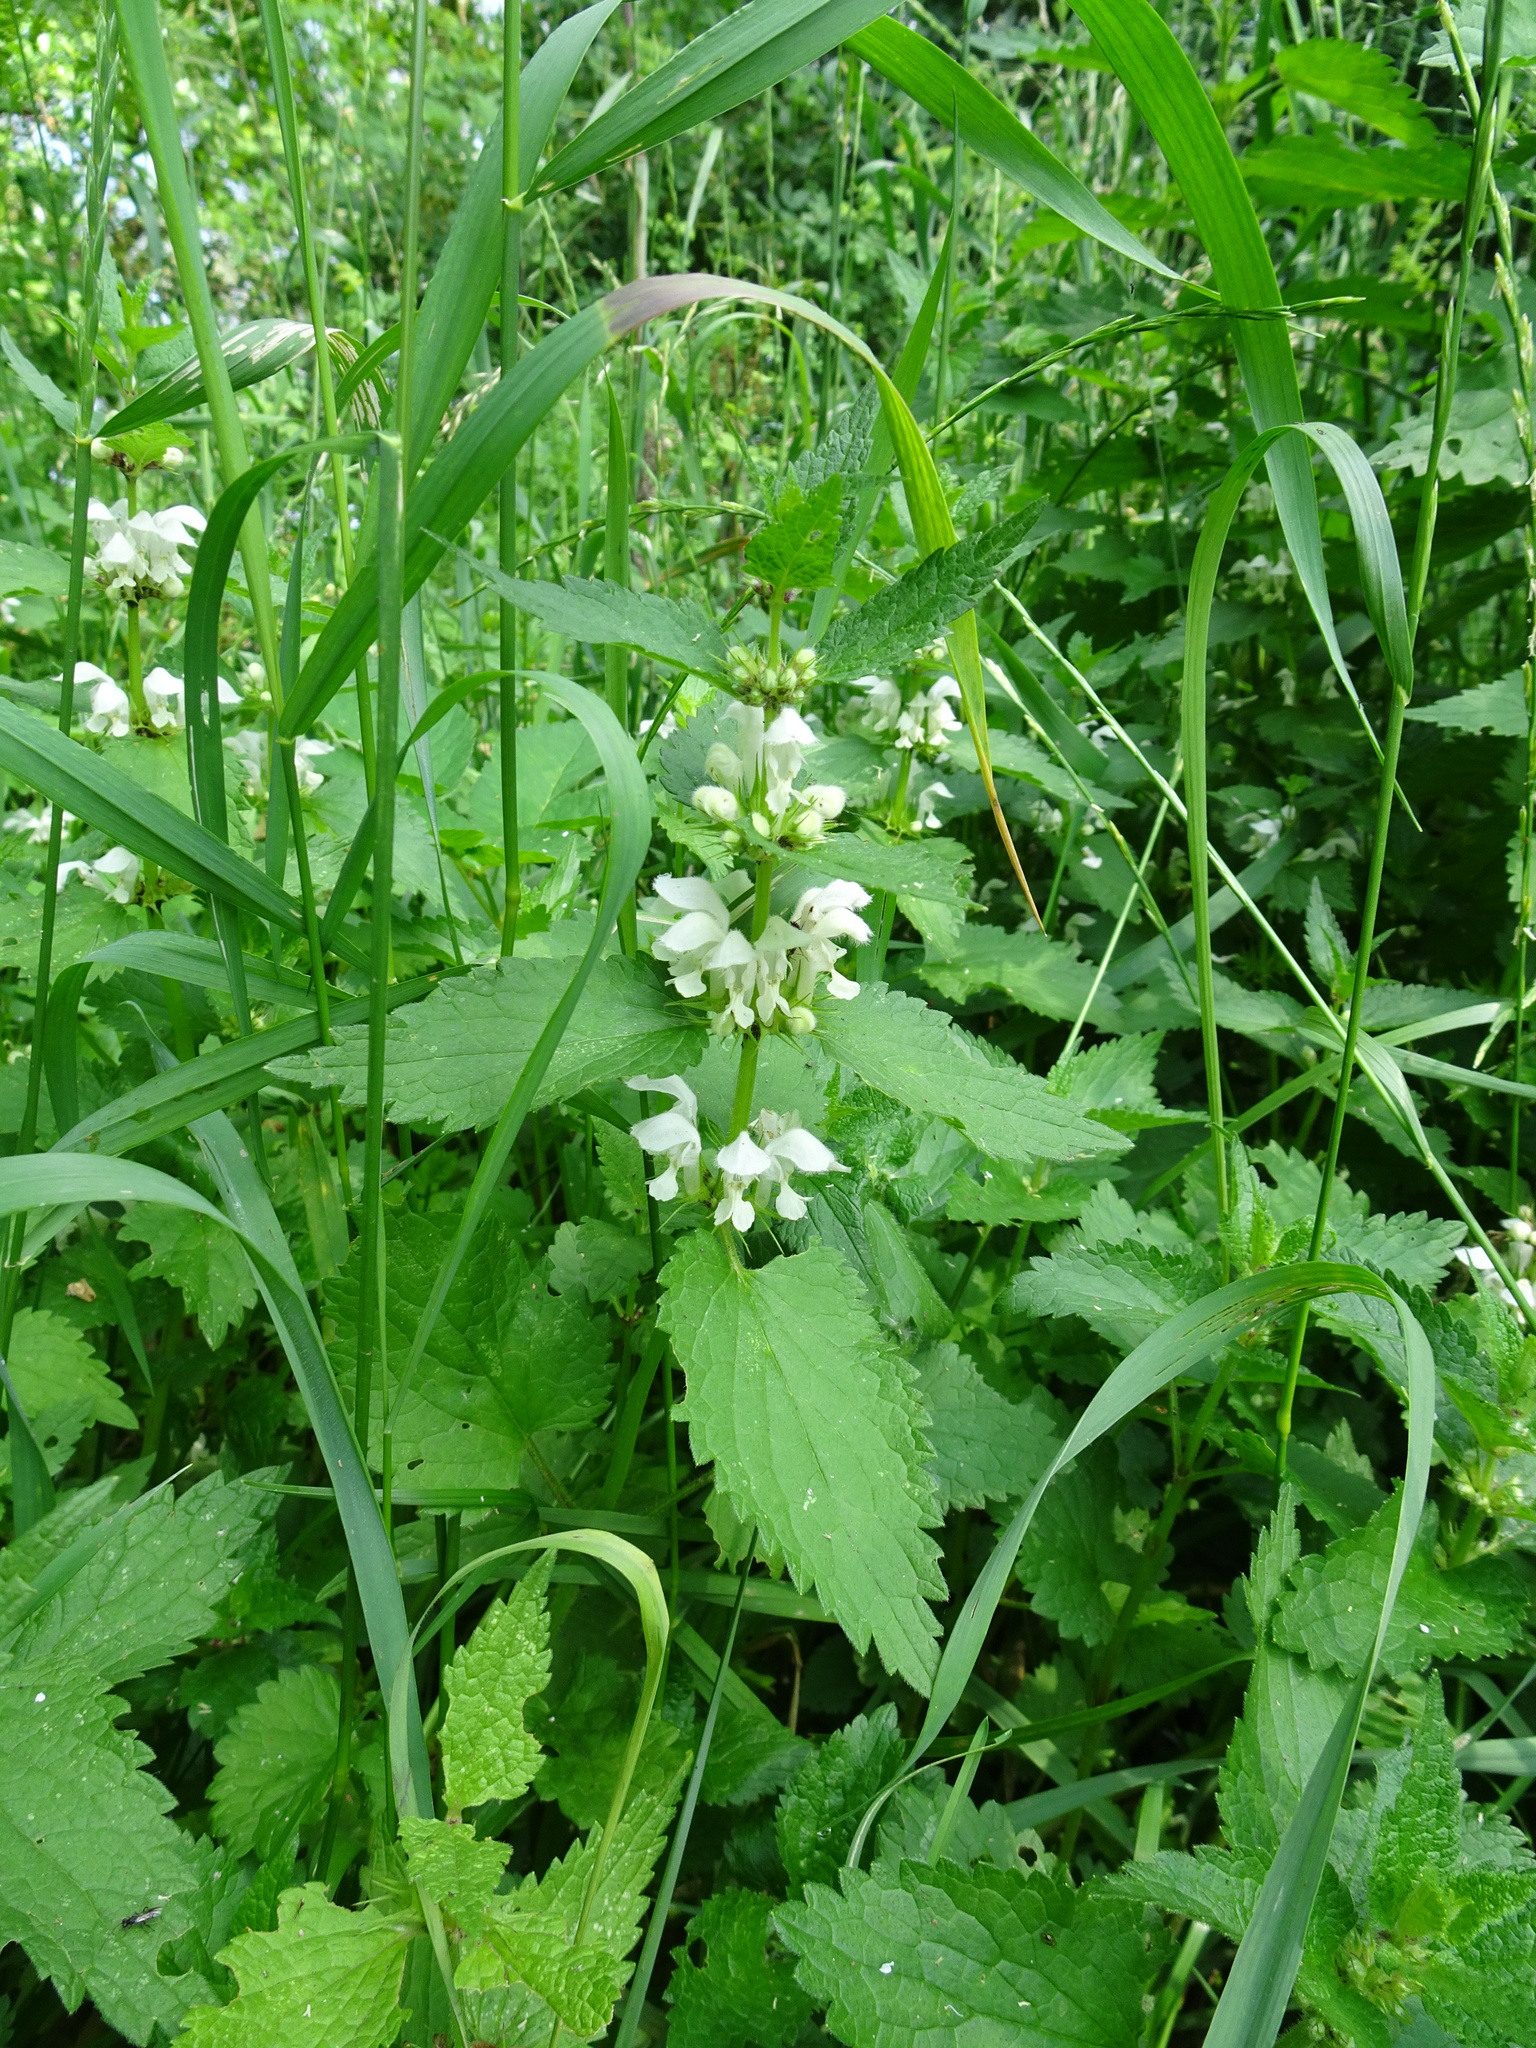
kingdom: Plantae
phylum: Tracheophyta
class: Magnoliopsida
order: Lamiales
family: Lamiaceae
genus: Lamium
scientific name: Lamium album
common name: White dead-nettle
